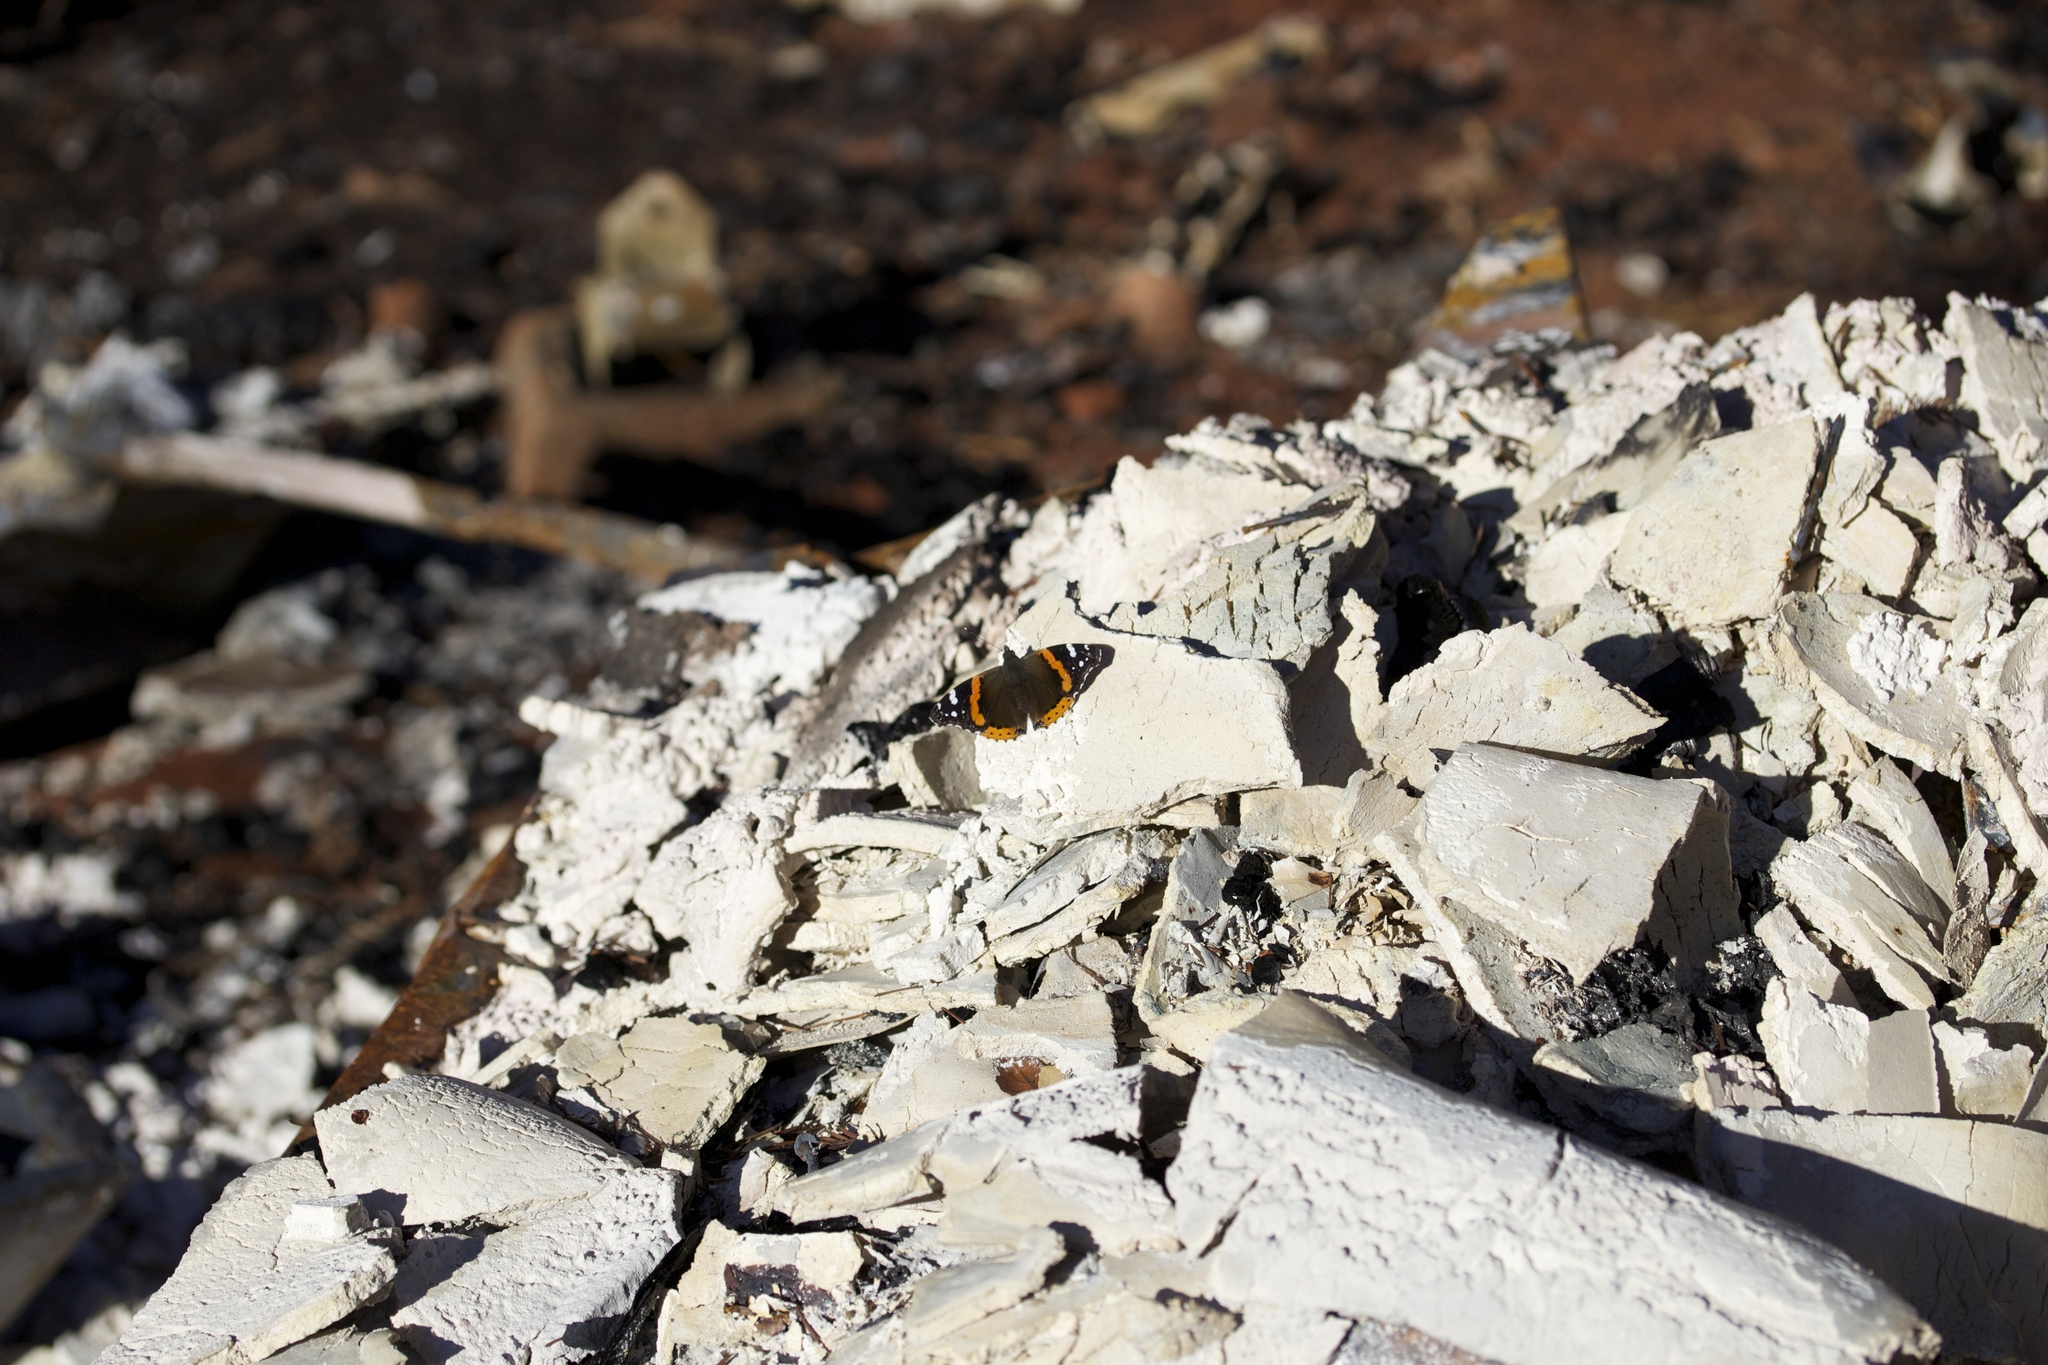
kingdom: Animalia
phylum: Arthropoda
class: Insecta
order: Lepidoptera
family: Nymphalidae
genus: Vanessa
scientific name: Vanessa atalanta
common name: Red admiral
